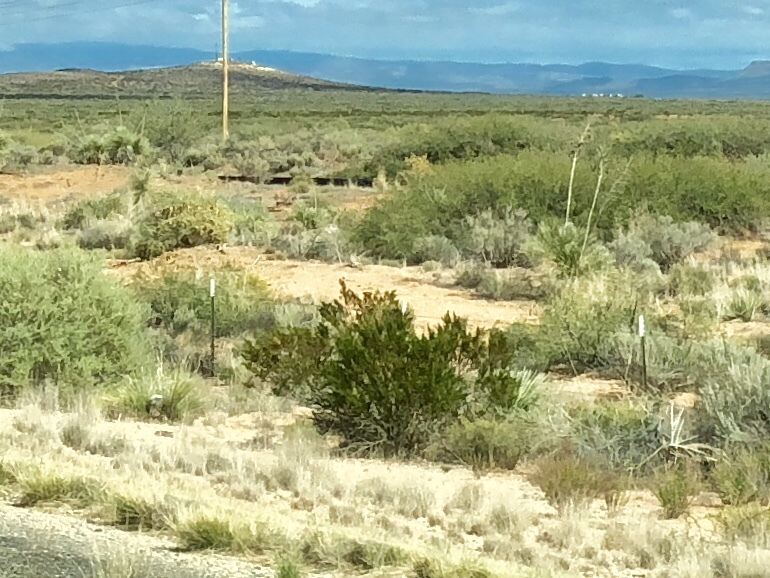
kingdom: Plantae
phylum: Tracheophyta
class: Magnoliopsida
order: Zygophyllales
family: Zygophyllaceae
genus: Larrea
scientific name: Larrea tridentata
